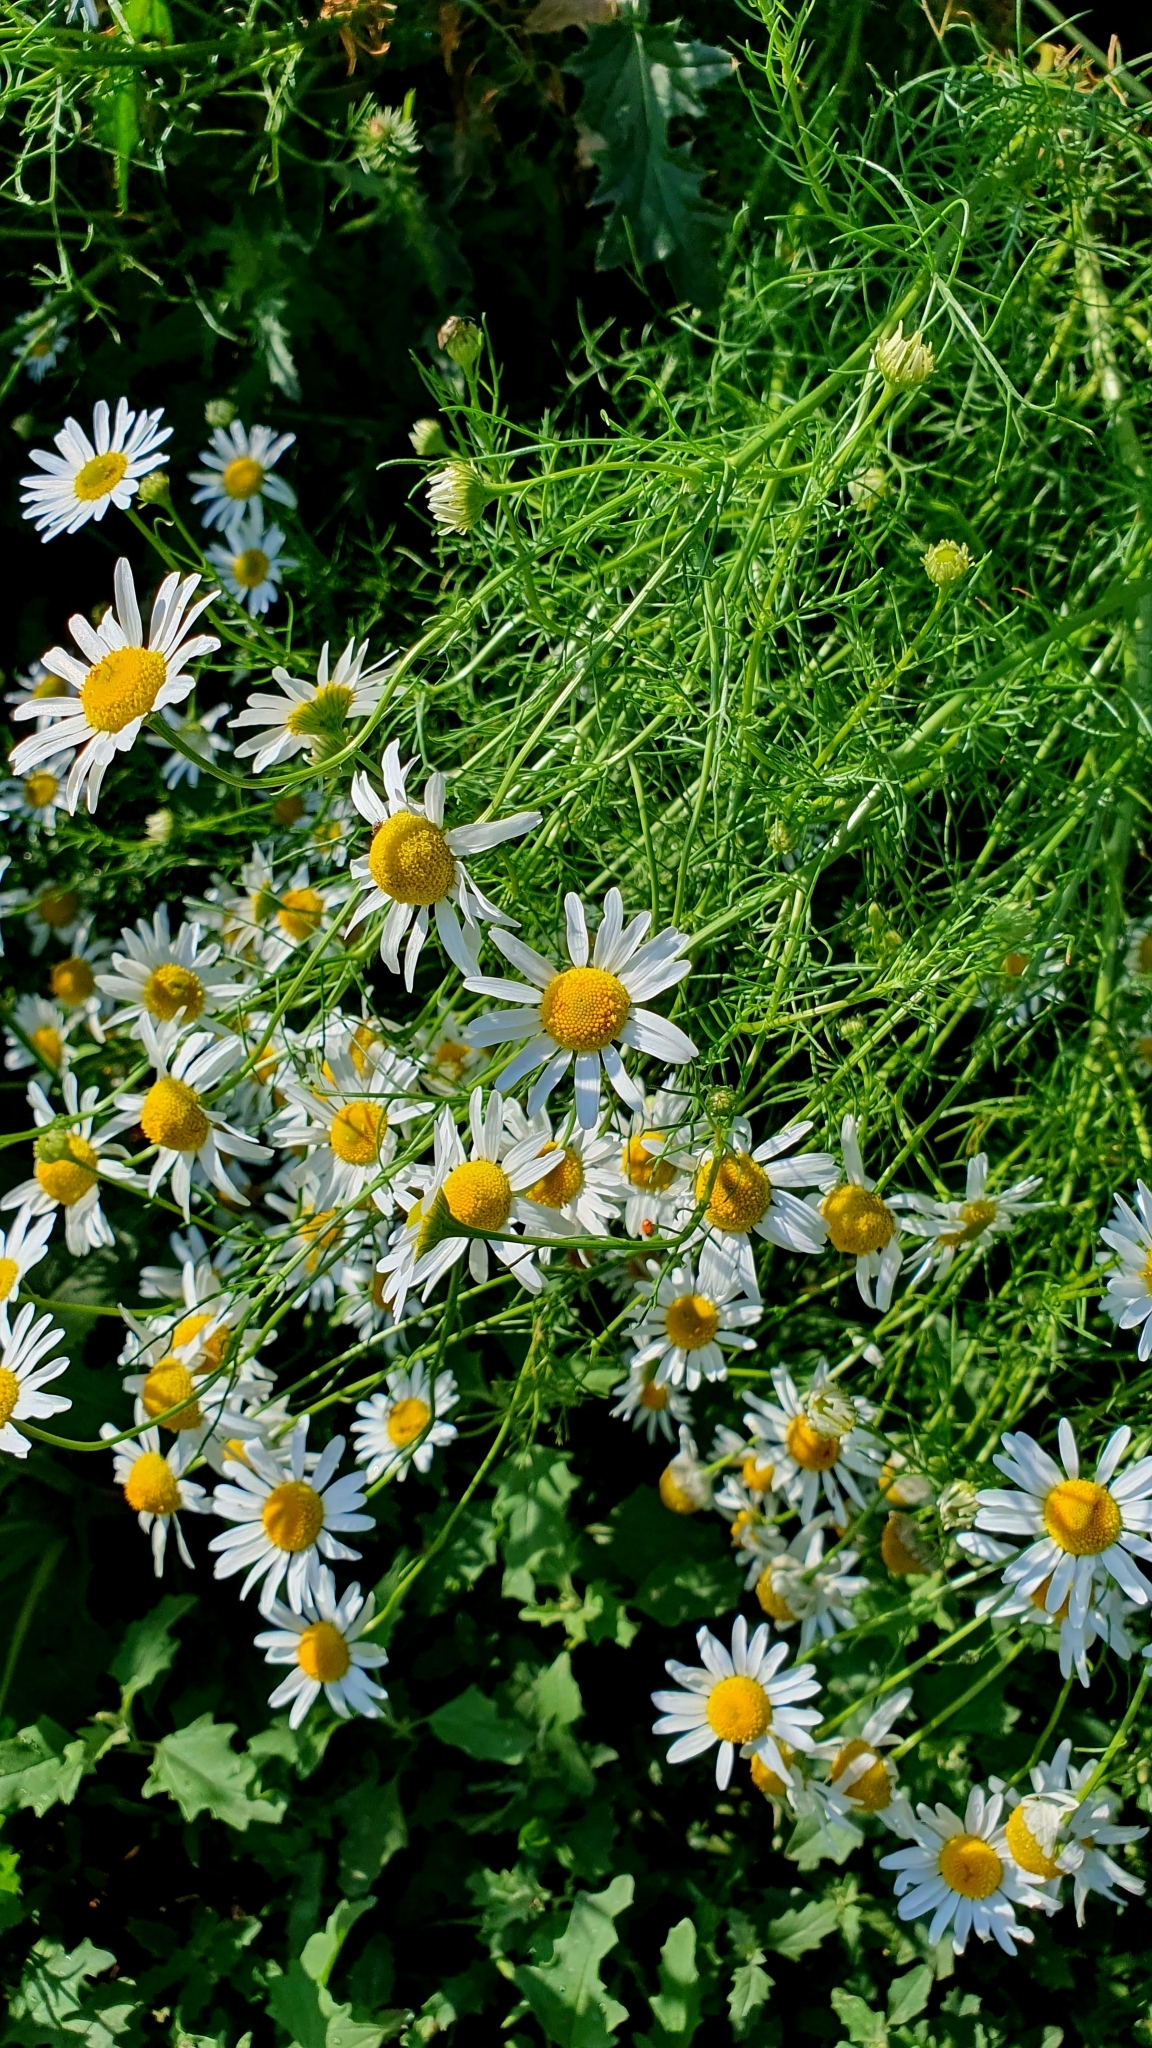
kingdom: Plantae
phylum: Tracheophyta
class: Magnoliopsida
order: Asterales
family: Asteraceae
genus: Tripleurospermum
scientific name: Tripleurospermum inodorum
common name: Scentless mayweed
